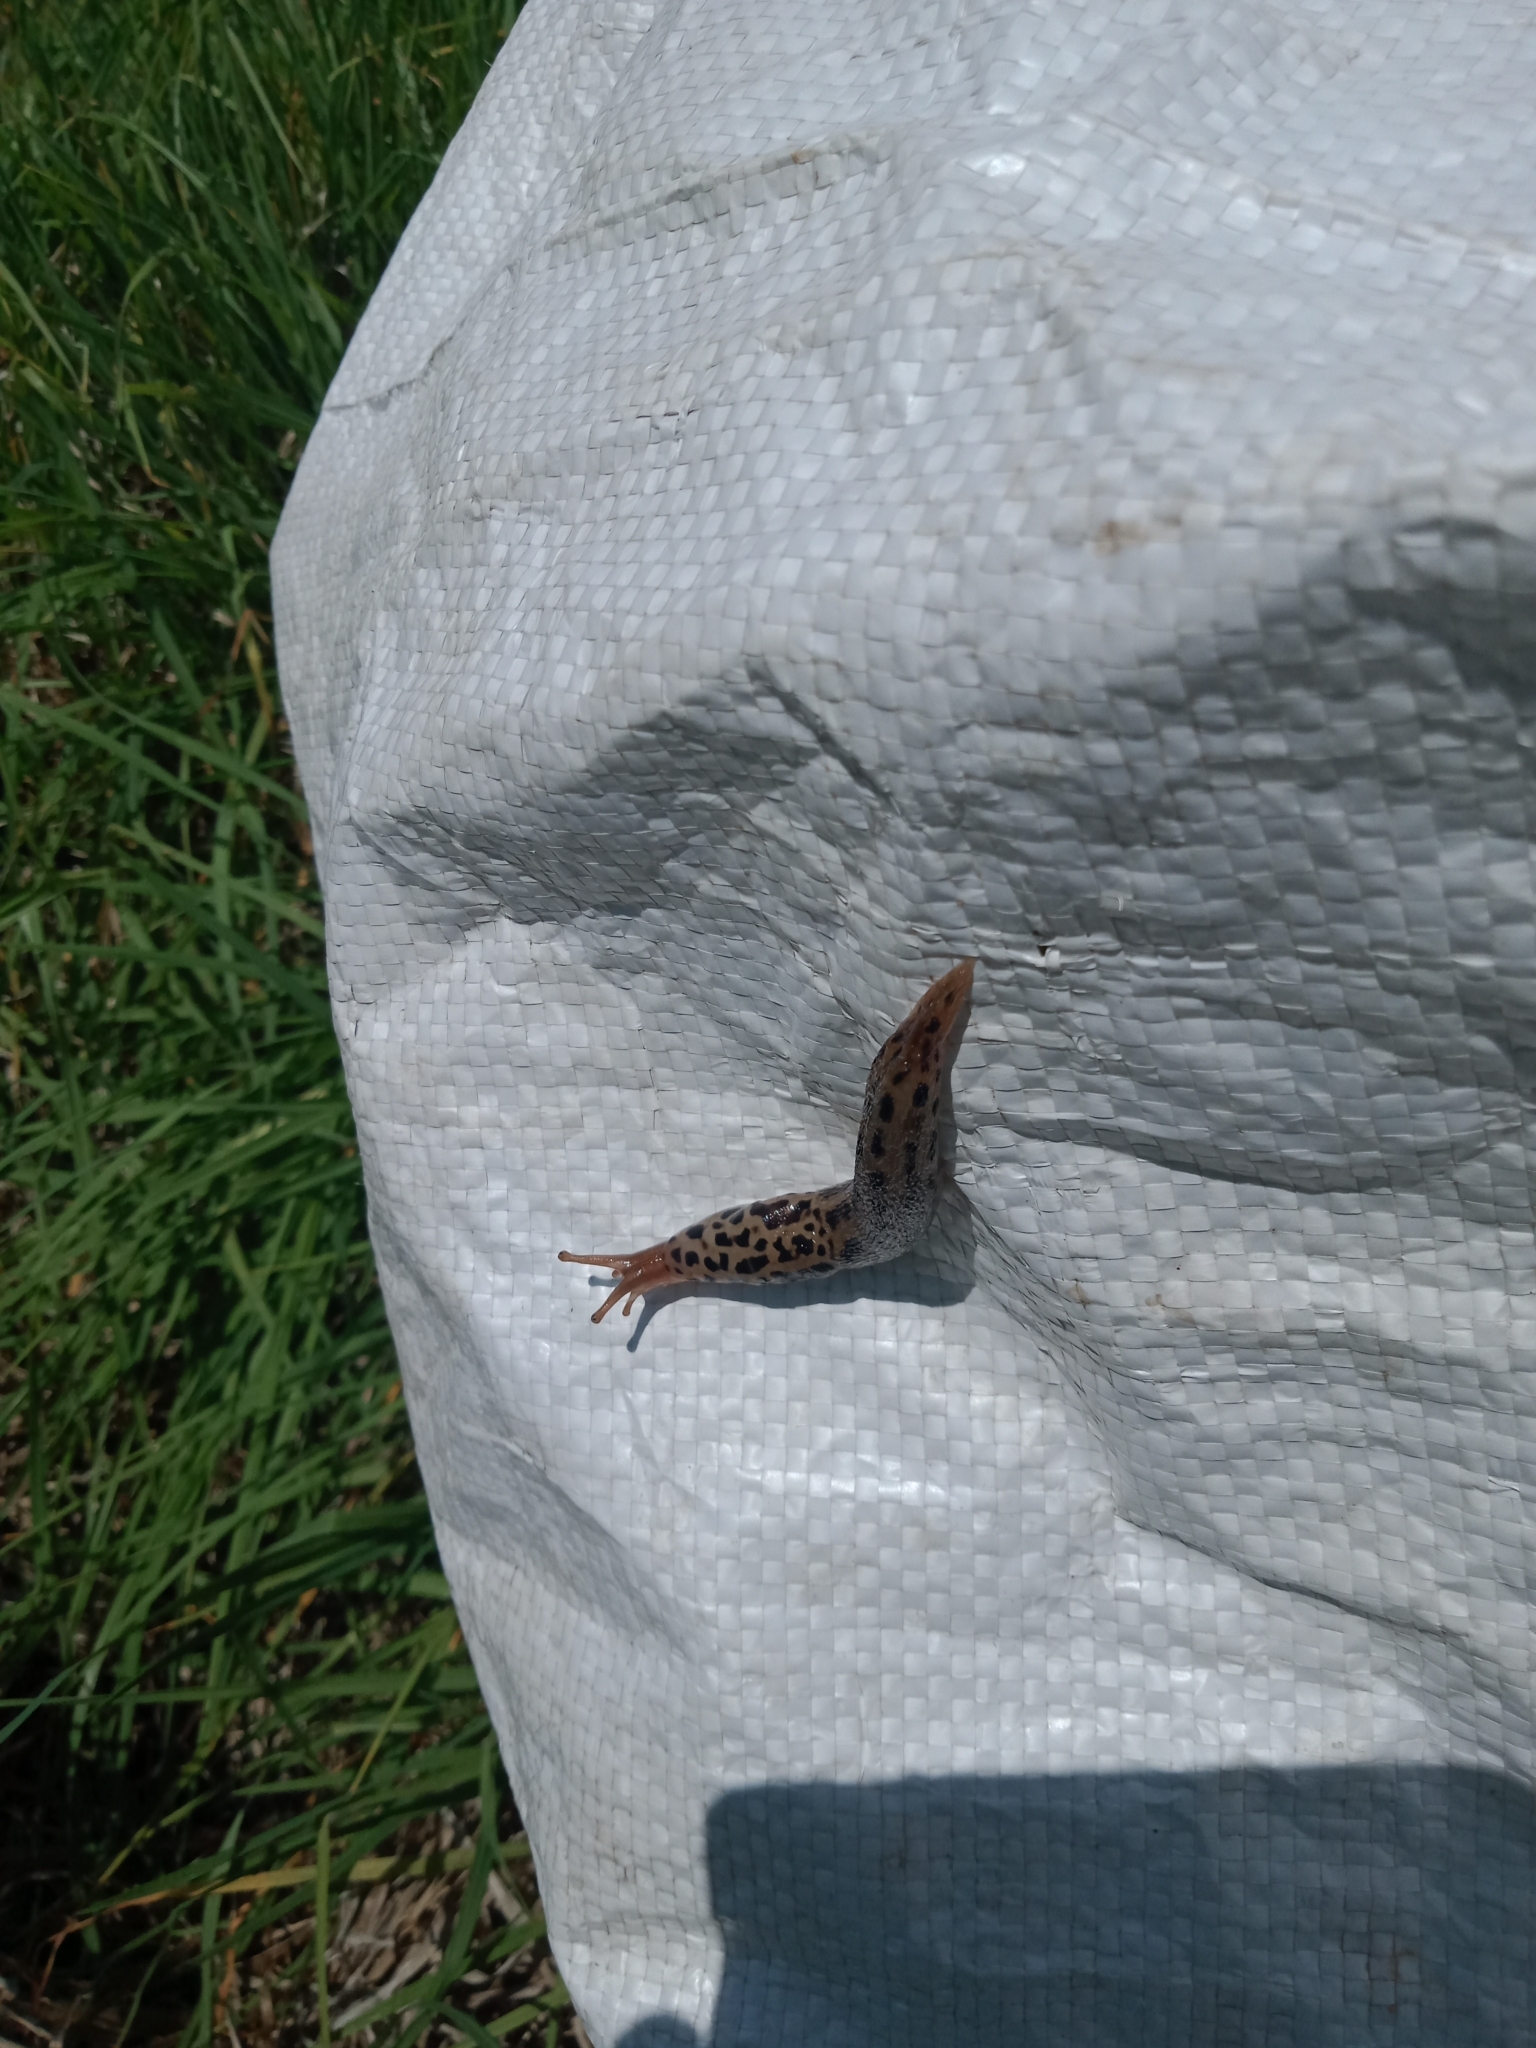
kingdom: Animalia
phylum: Mollusca
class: Gastropoda
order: Stylommatophora
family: Limacidae
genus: Limax
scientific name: Limax maximus
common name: Great grey slug
